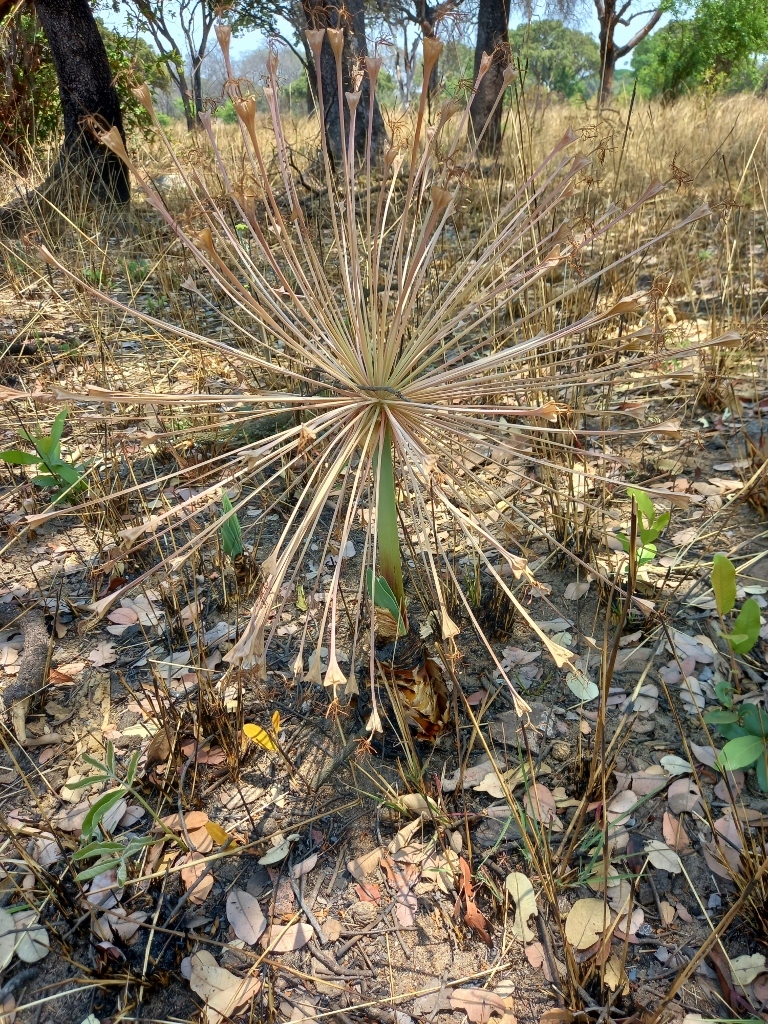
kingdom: Plantae
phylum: Tracheophyta
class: Liliopsida
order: Asparagales
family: Amaryllidaceae
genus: Boophone
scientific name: Boophone disticha
